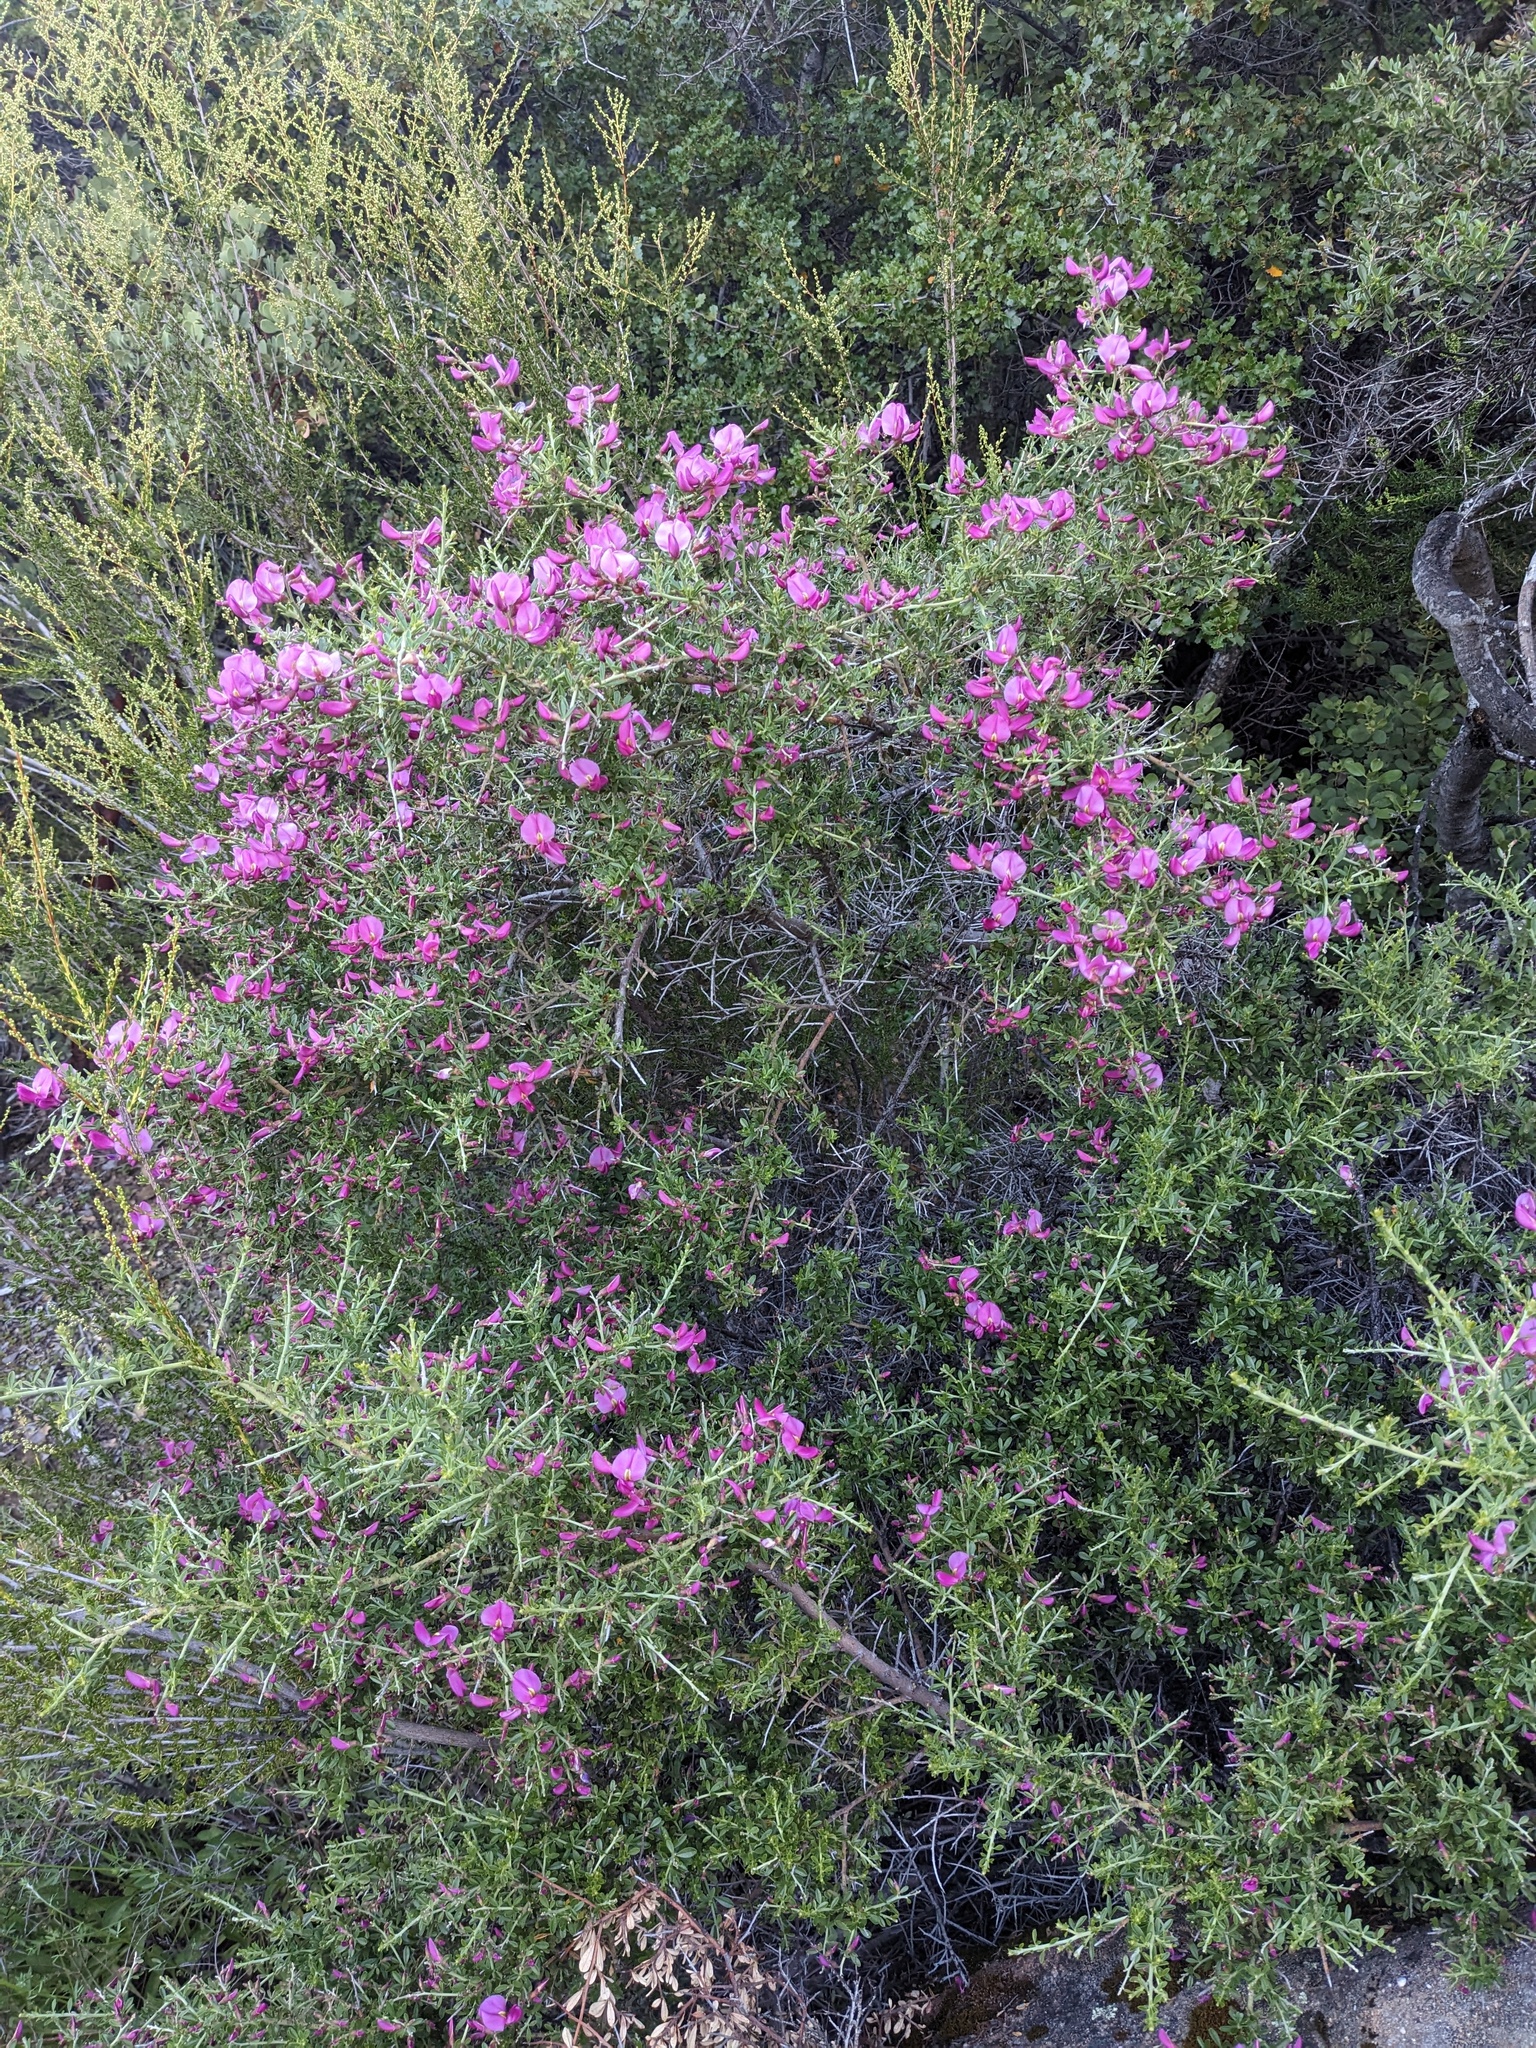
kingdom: Plantae
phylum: Tracheophyta
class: Magnoliopsida
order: Fabales
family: Fabaceae
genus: Pickeringia
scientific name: Pickeringia montana
